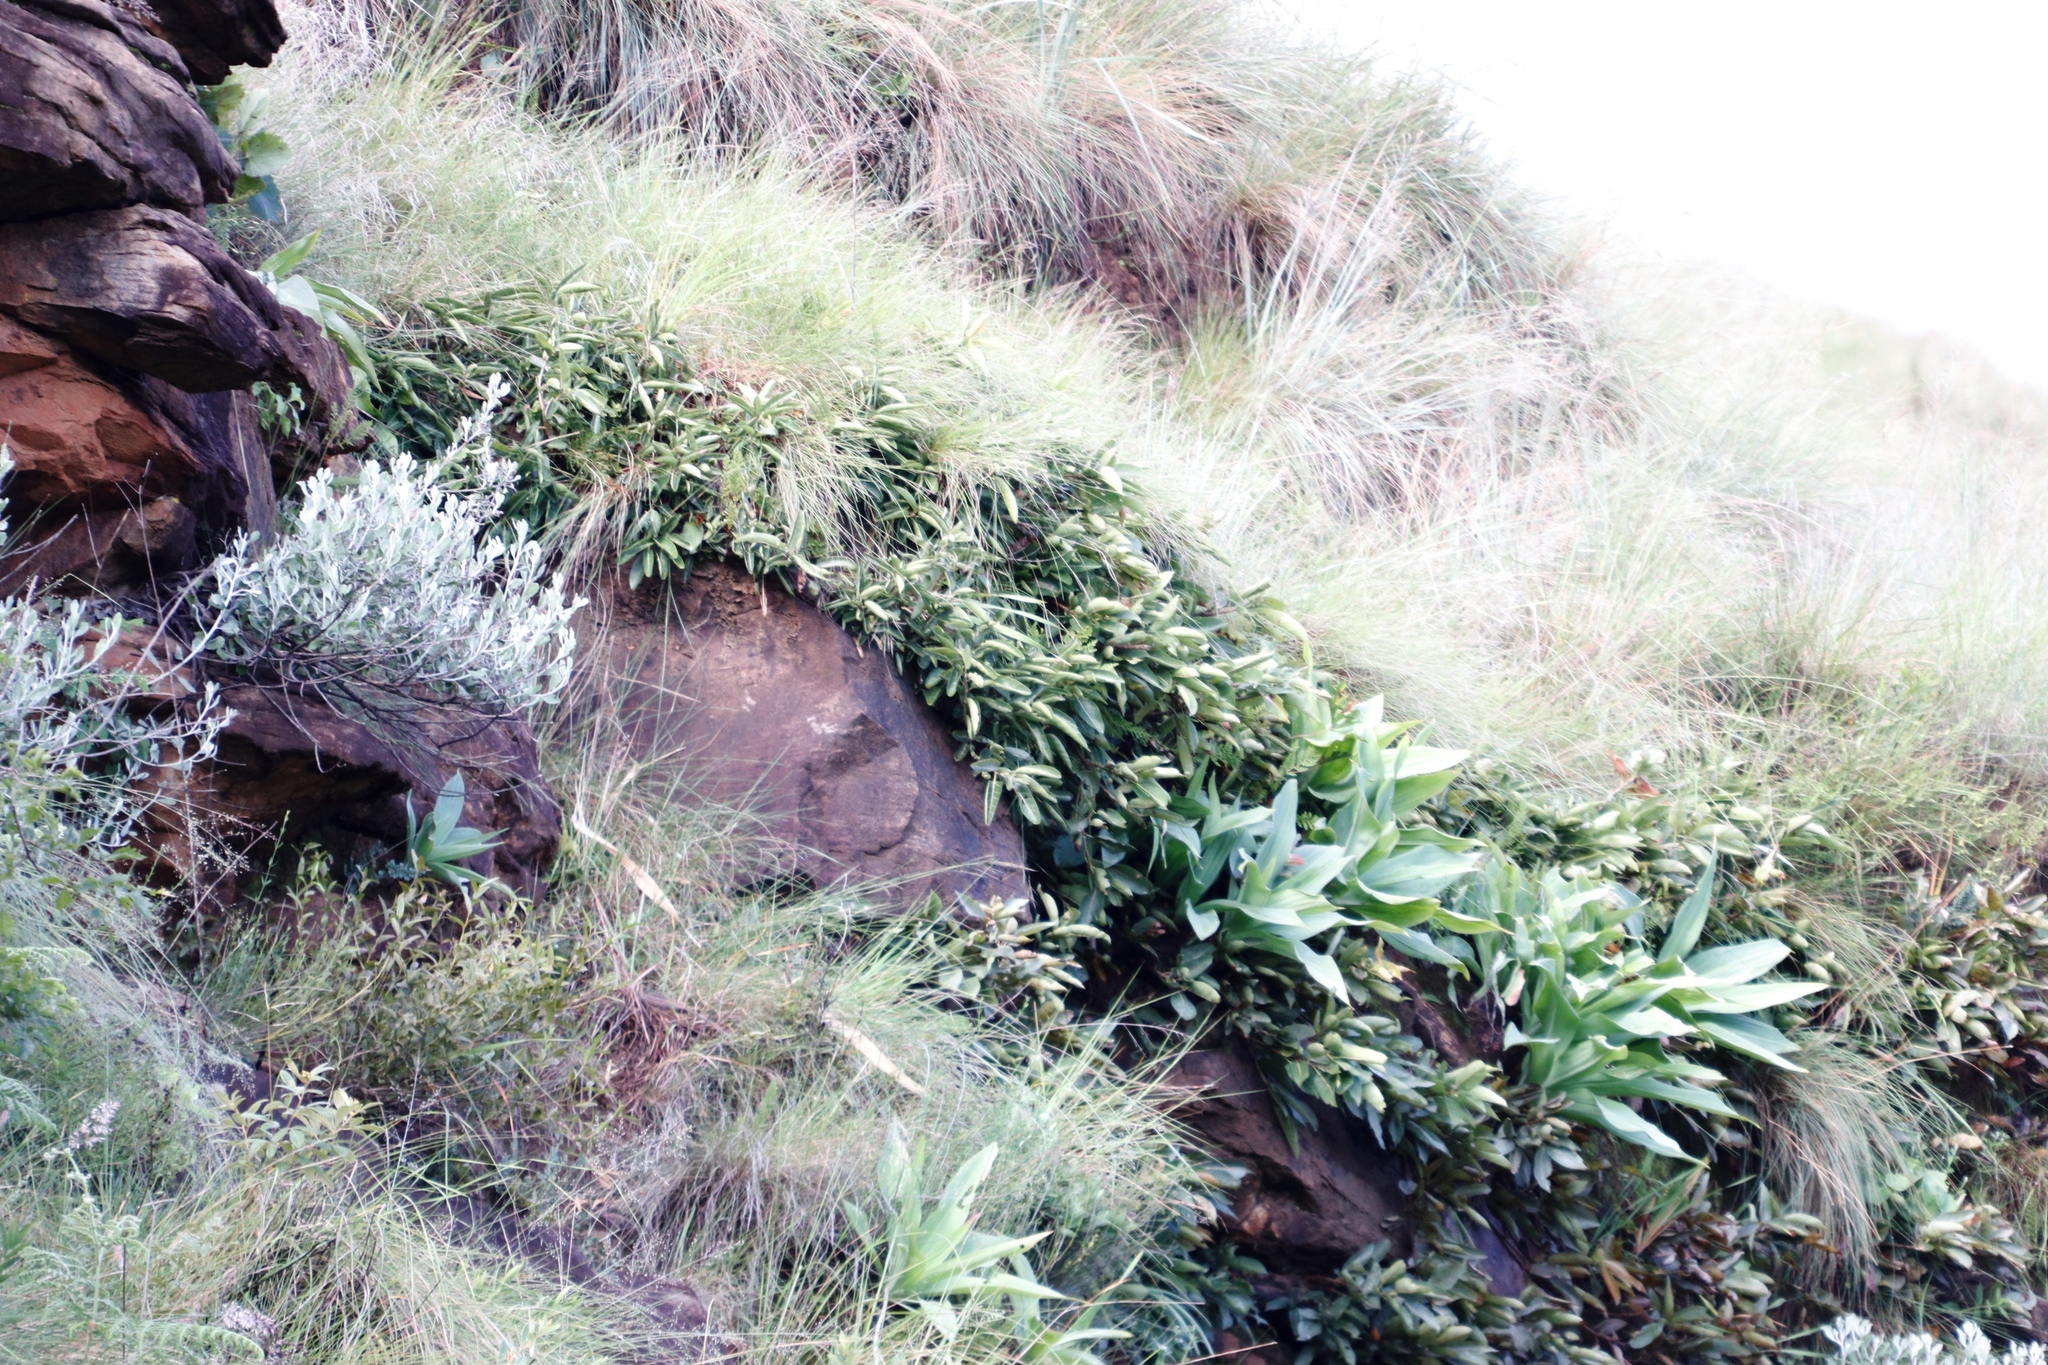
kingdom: Plantae
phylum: Tracheophyta
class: Magnoliopsida
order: Rosales
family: Moraceae
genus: Ficus
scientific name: Ficus ingens
